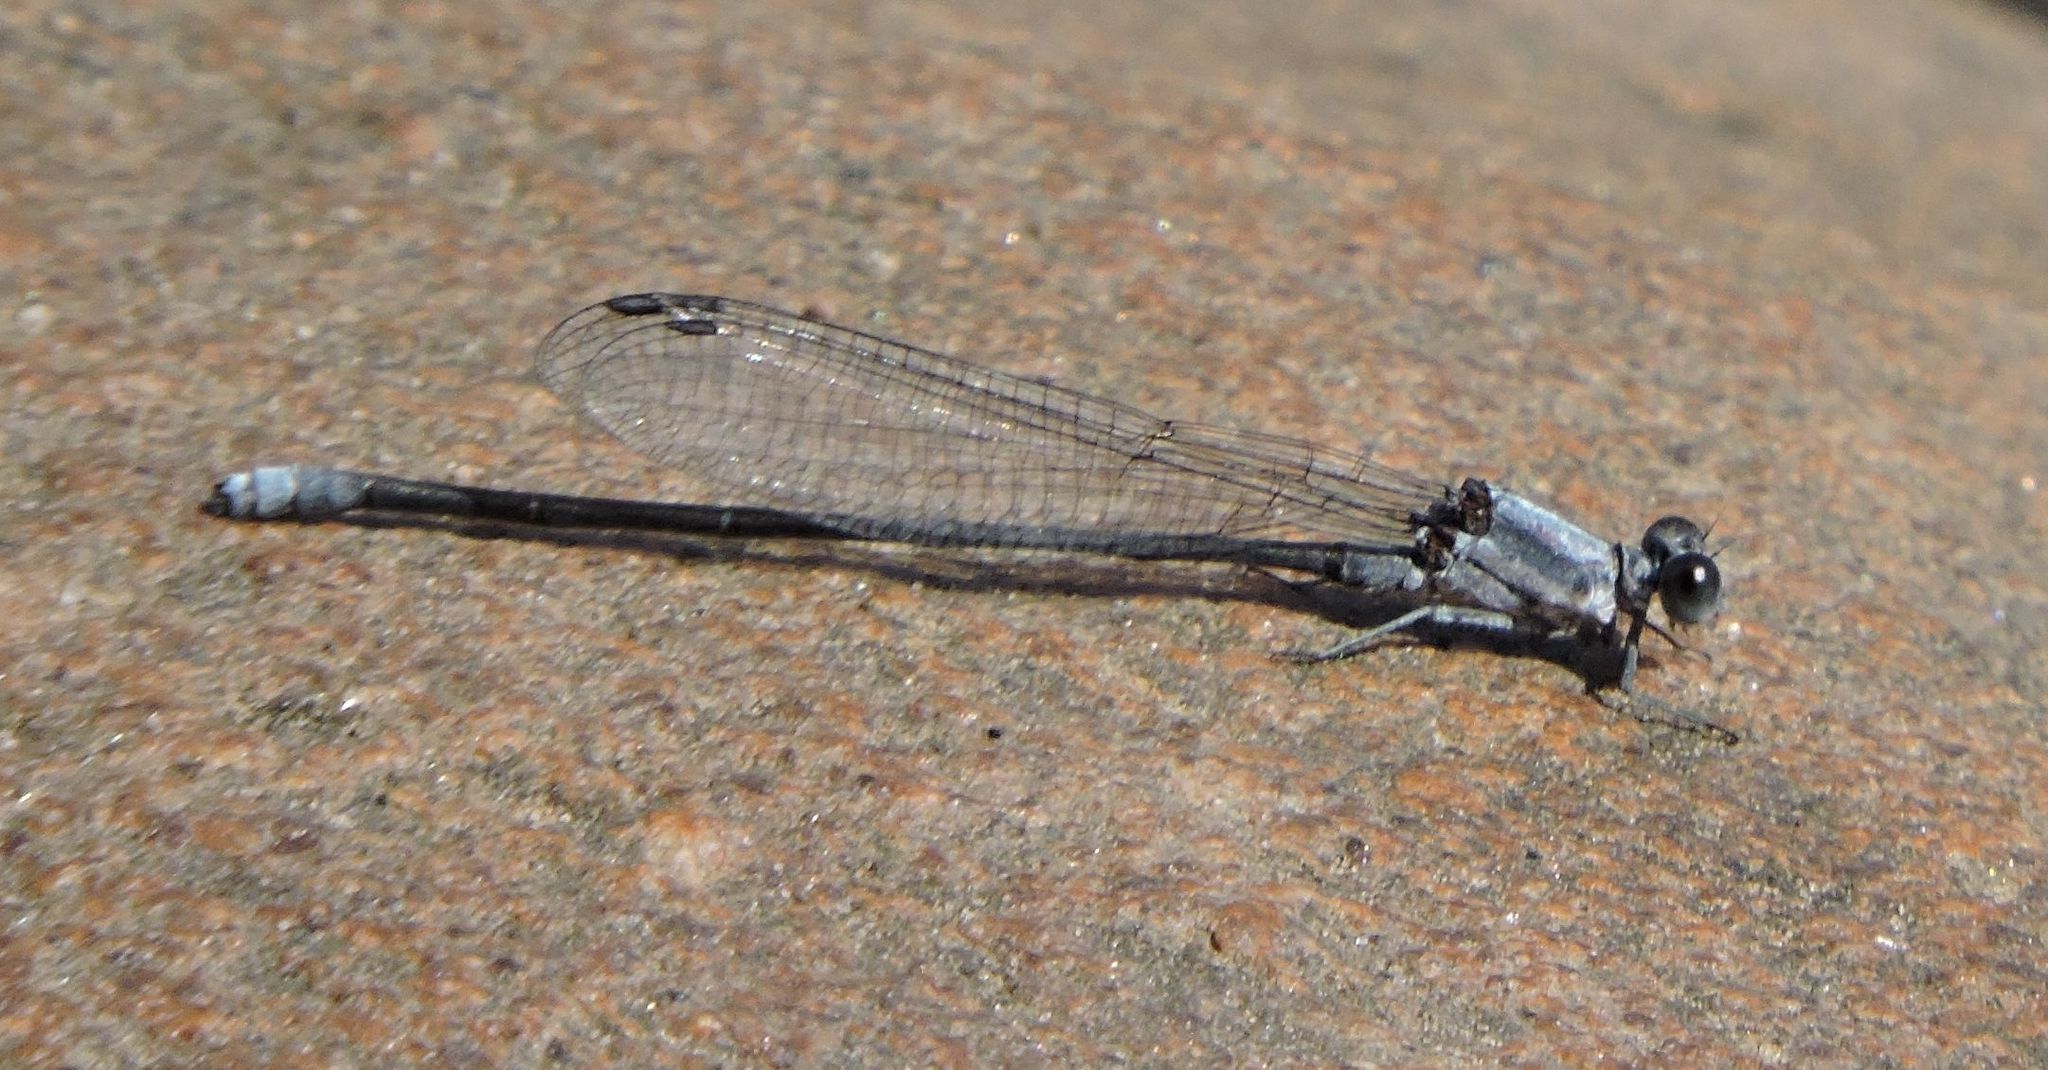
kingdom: Animalia
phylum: Arthropoda
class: Insecta
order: Odonata
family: Coenagrionidae
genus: Argia
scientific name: Argia moesta
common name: Powdered dancer
